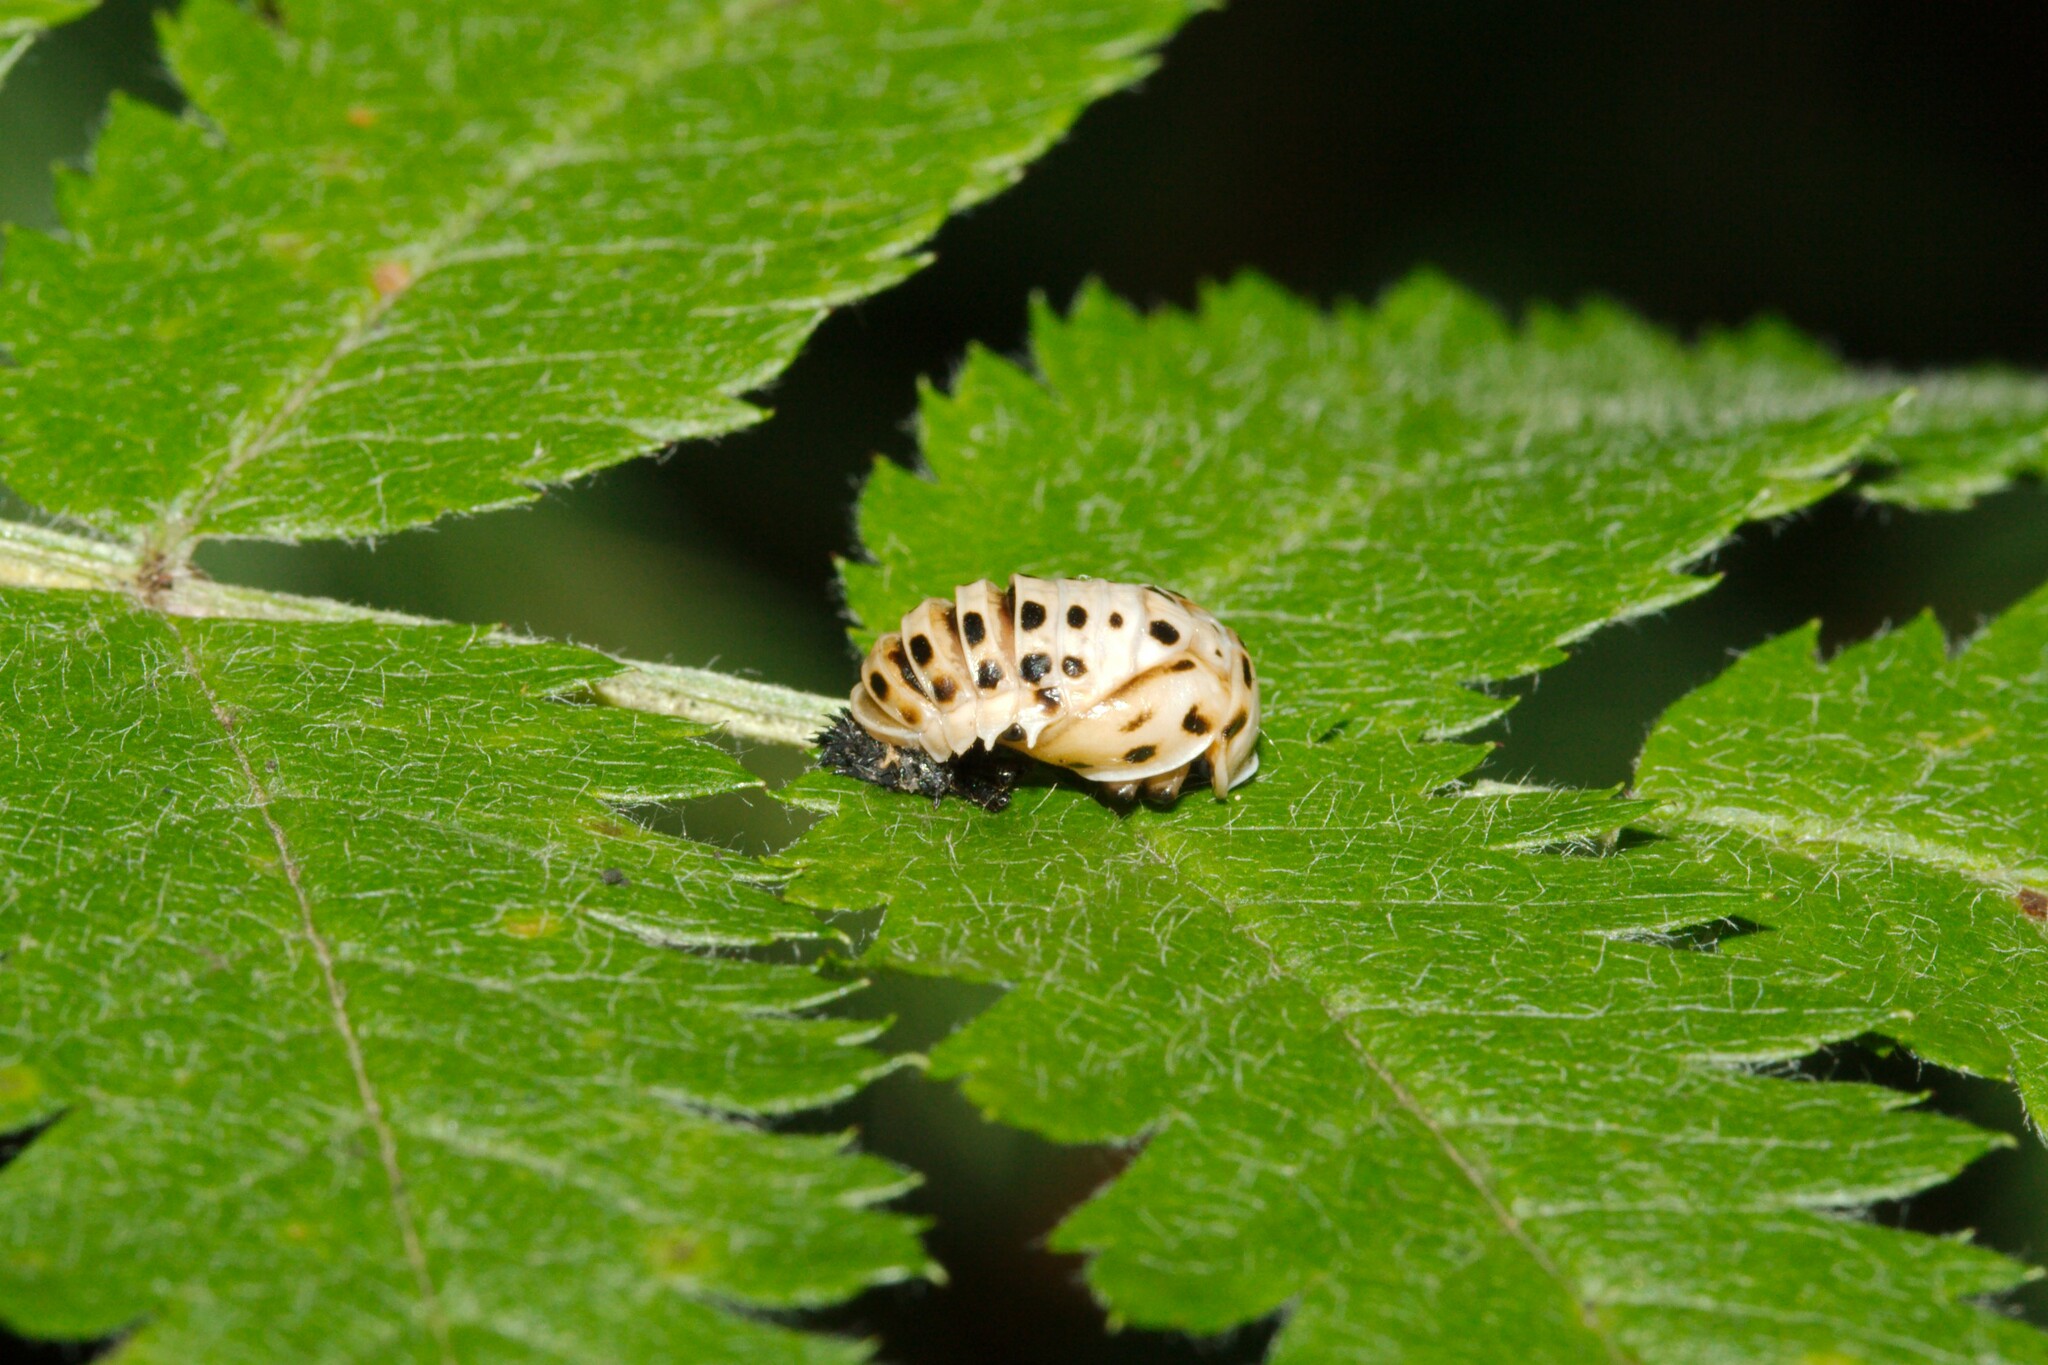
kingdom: Animalia
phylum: Arthropoda
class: Insecta
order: Coleoptera
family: Coccinellidae
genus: Anatis
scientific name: Anatis ocellata
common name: Eyed ladybird
